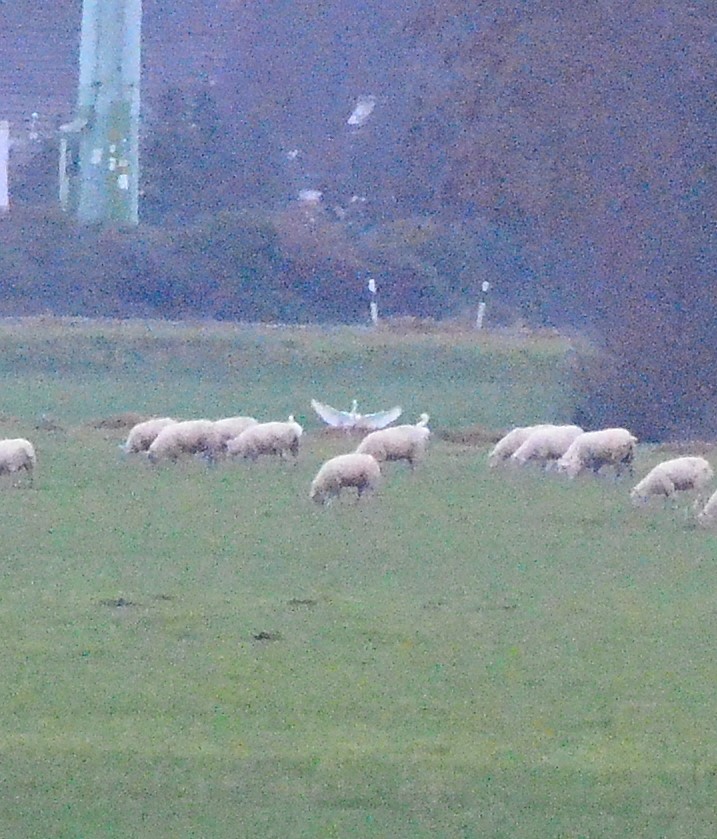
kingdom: Animalia
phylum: Chordata
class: Aves
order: Pelecaniformes
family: Ardeidae
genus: Ardea
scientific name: Ardea alba
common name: Great egret
